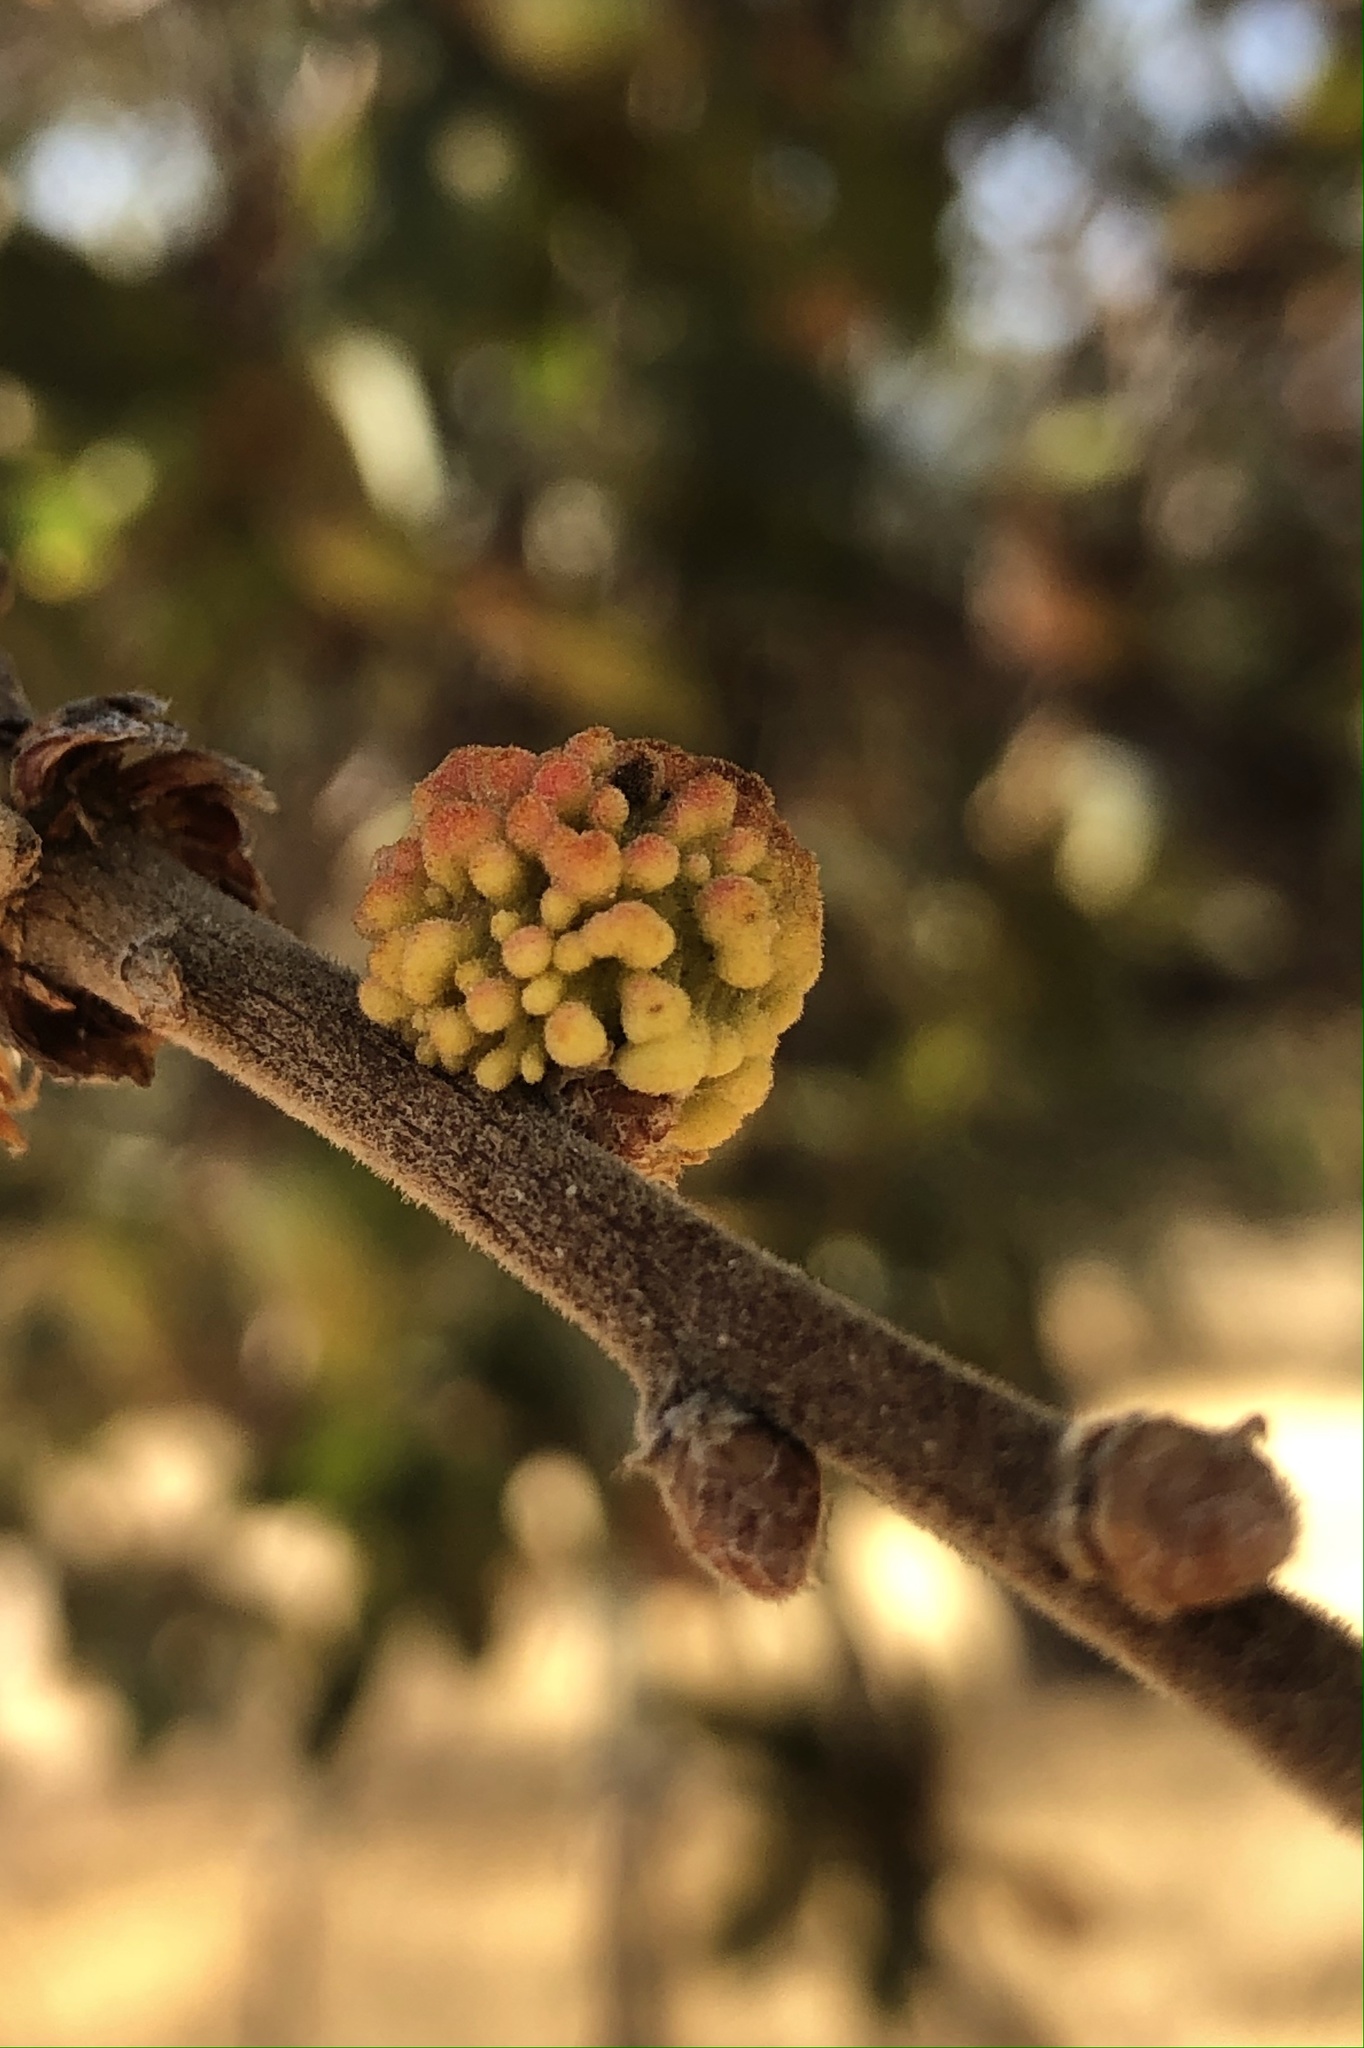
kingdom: Animalia
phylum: Arthropoda
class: Insecta
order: Hymenoptera
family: Cynipidae
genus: Burnettweldia
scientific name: Burnettweldia
